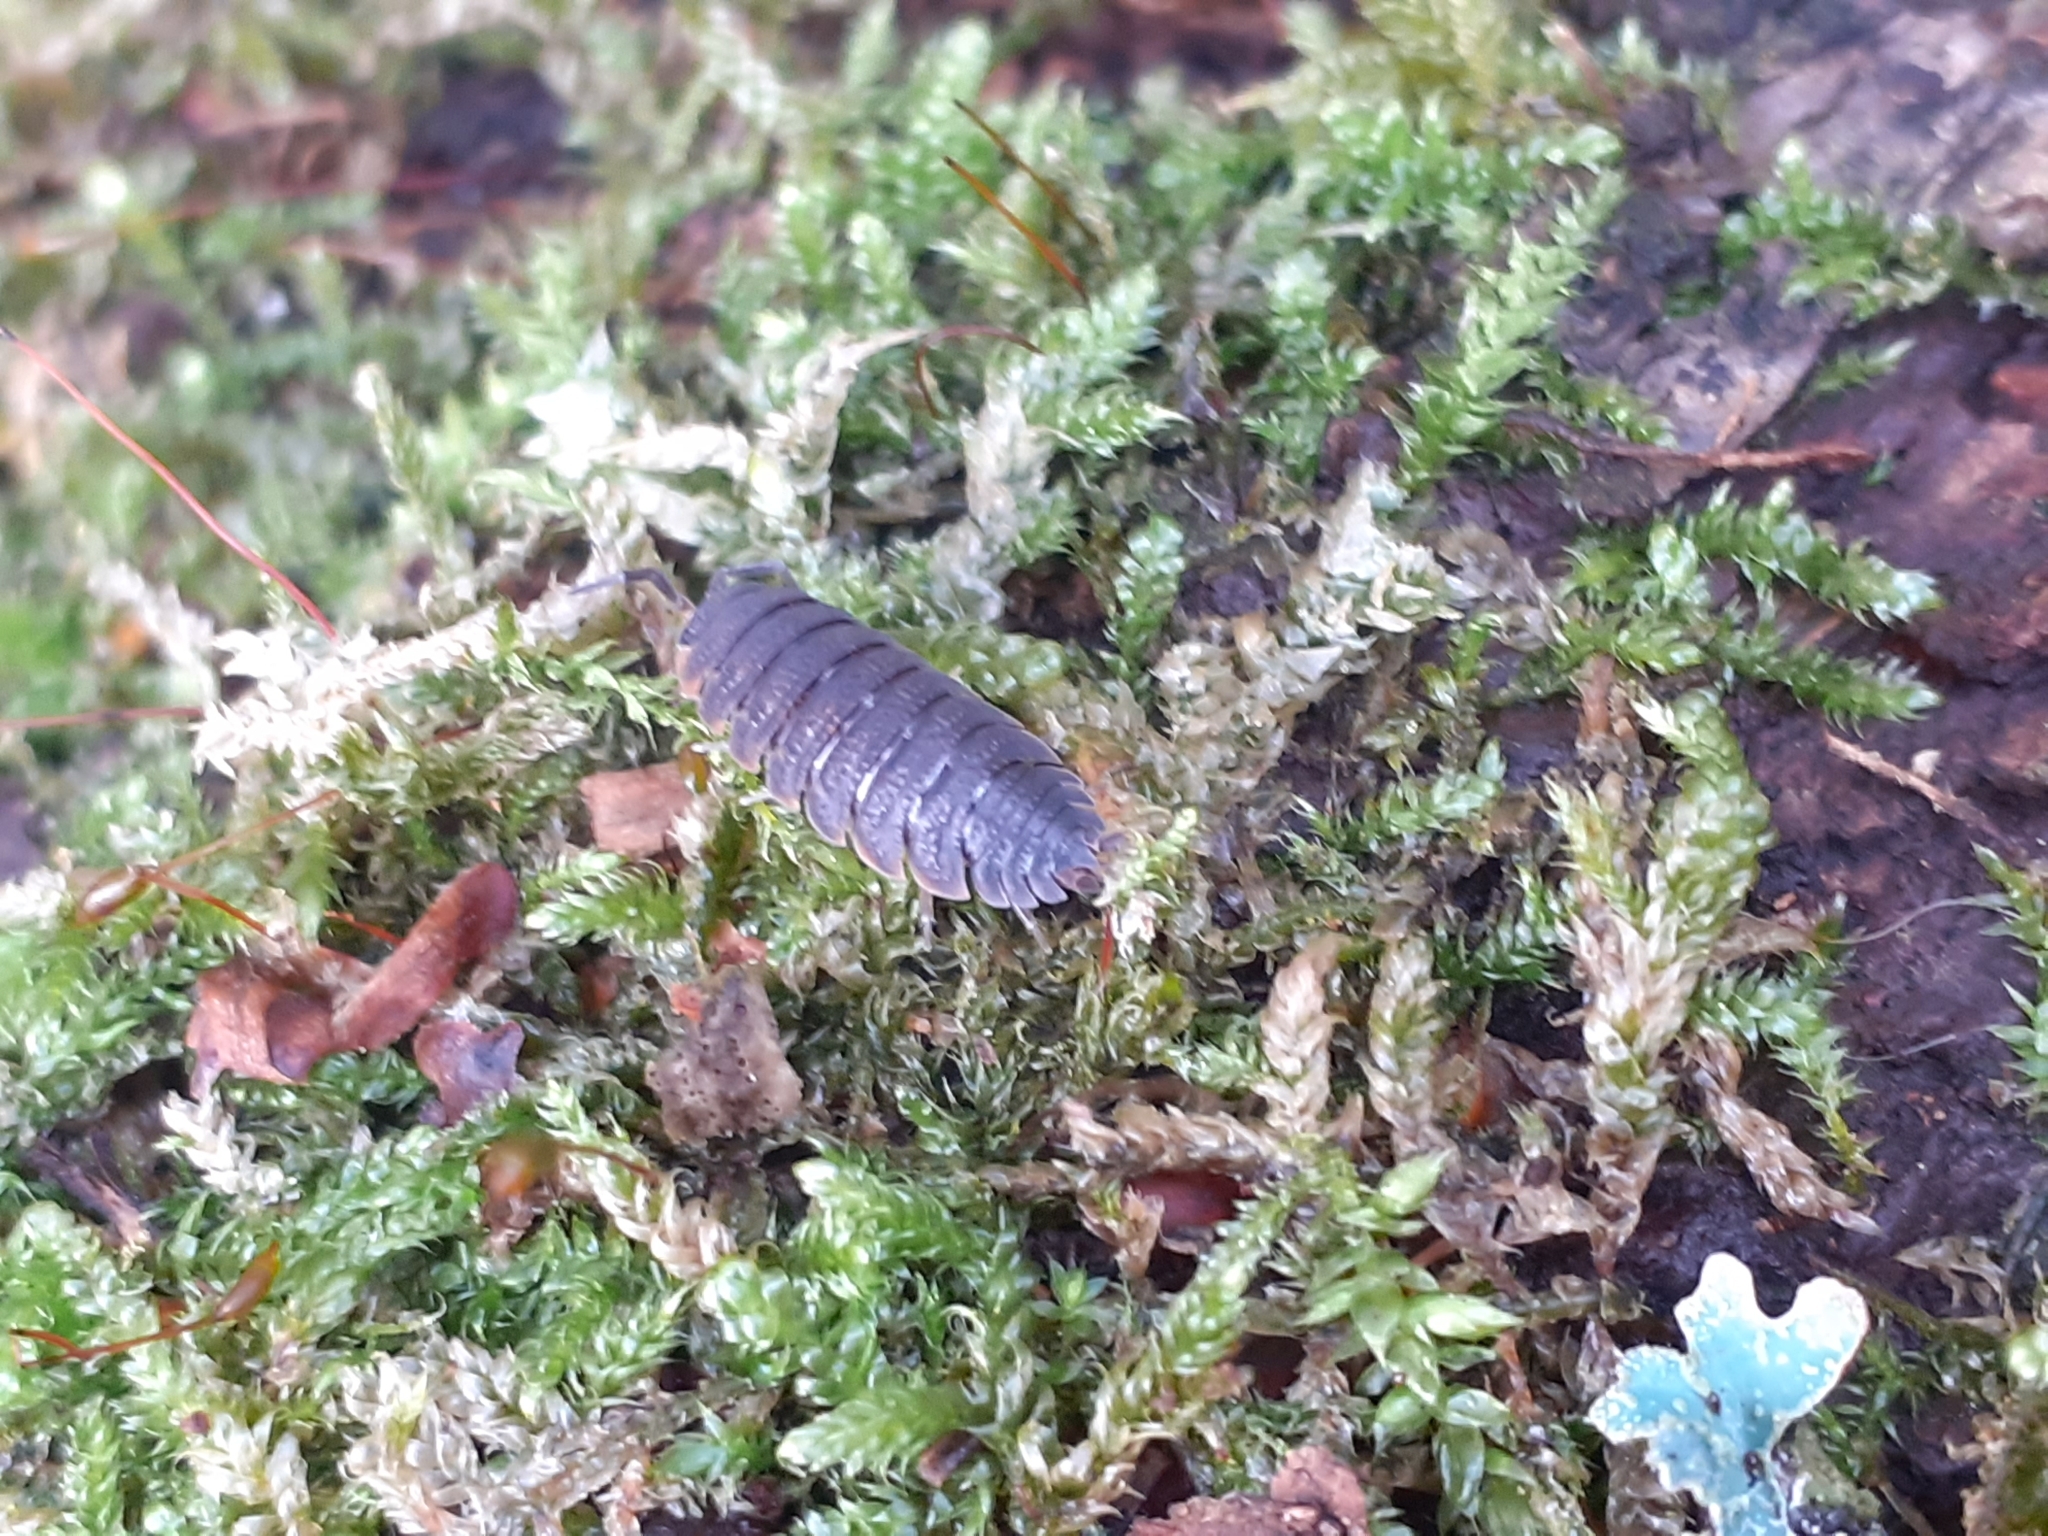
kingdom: Animalia
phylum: Arthropoda
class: Malacostraca
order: Isopoda
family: Porcellionidae
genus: Porcellio
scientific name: Porcellio scaber
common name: Common rough woodlouse
